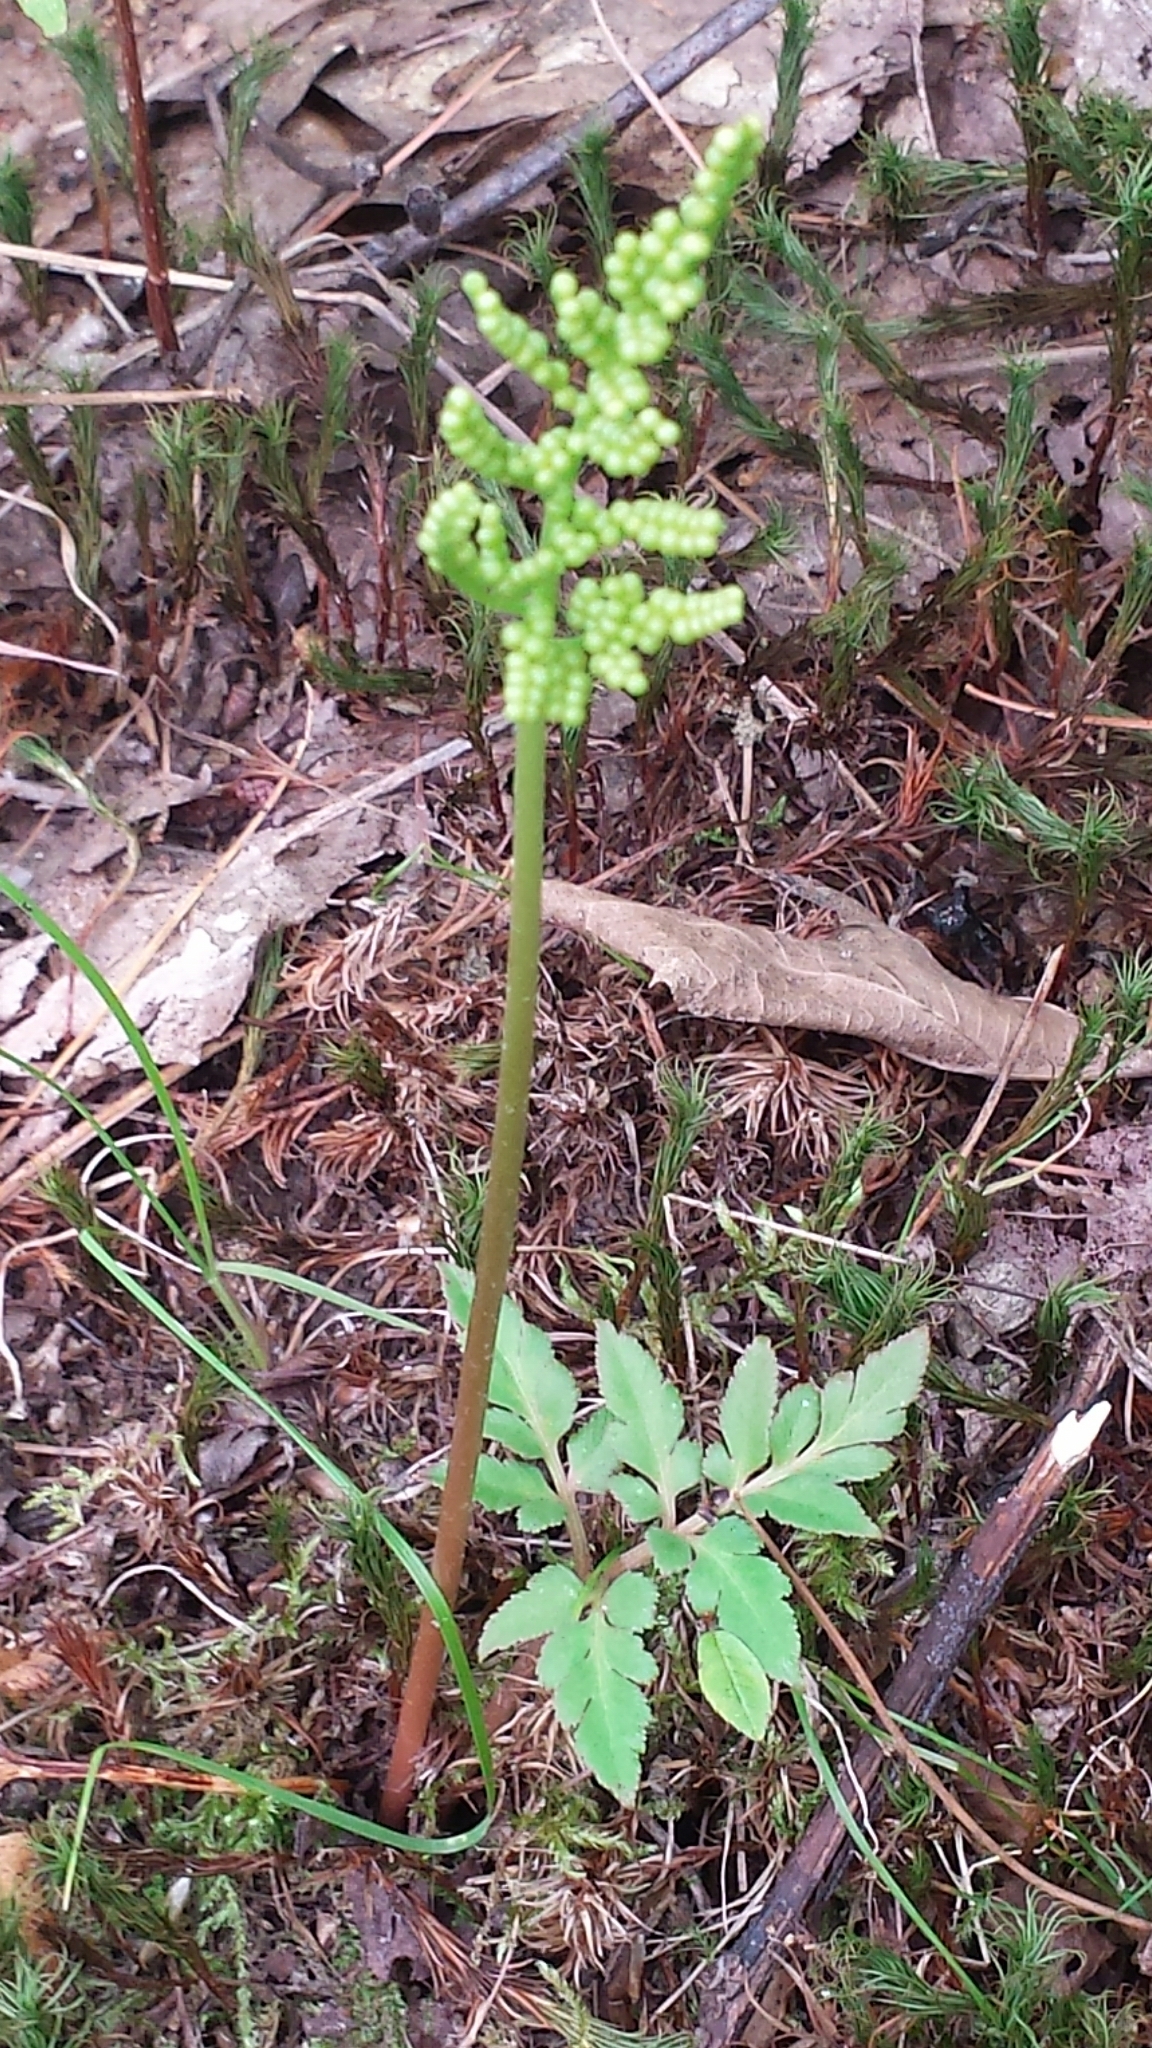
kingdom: Plantae
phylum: Tracheophyta
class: Polypodiopsida
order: Ophioglossales
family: Ophioglossaceae
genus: Sceptridium
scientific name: Sceptridium dissectum
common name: Cut-leaved grapefern
